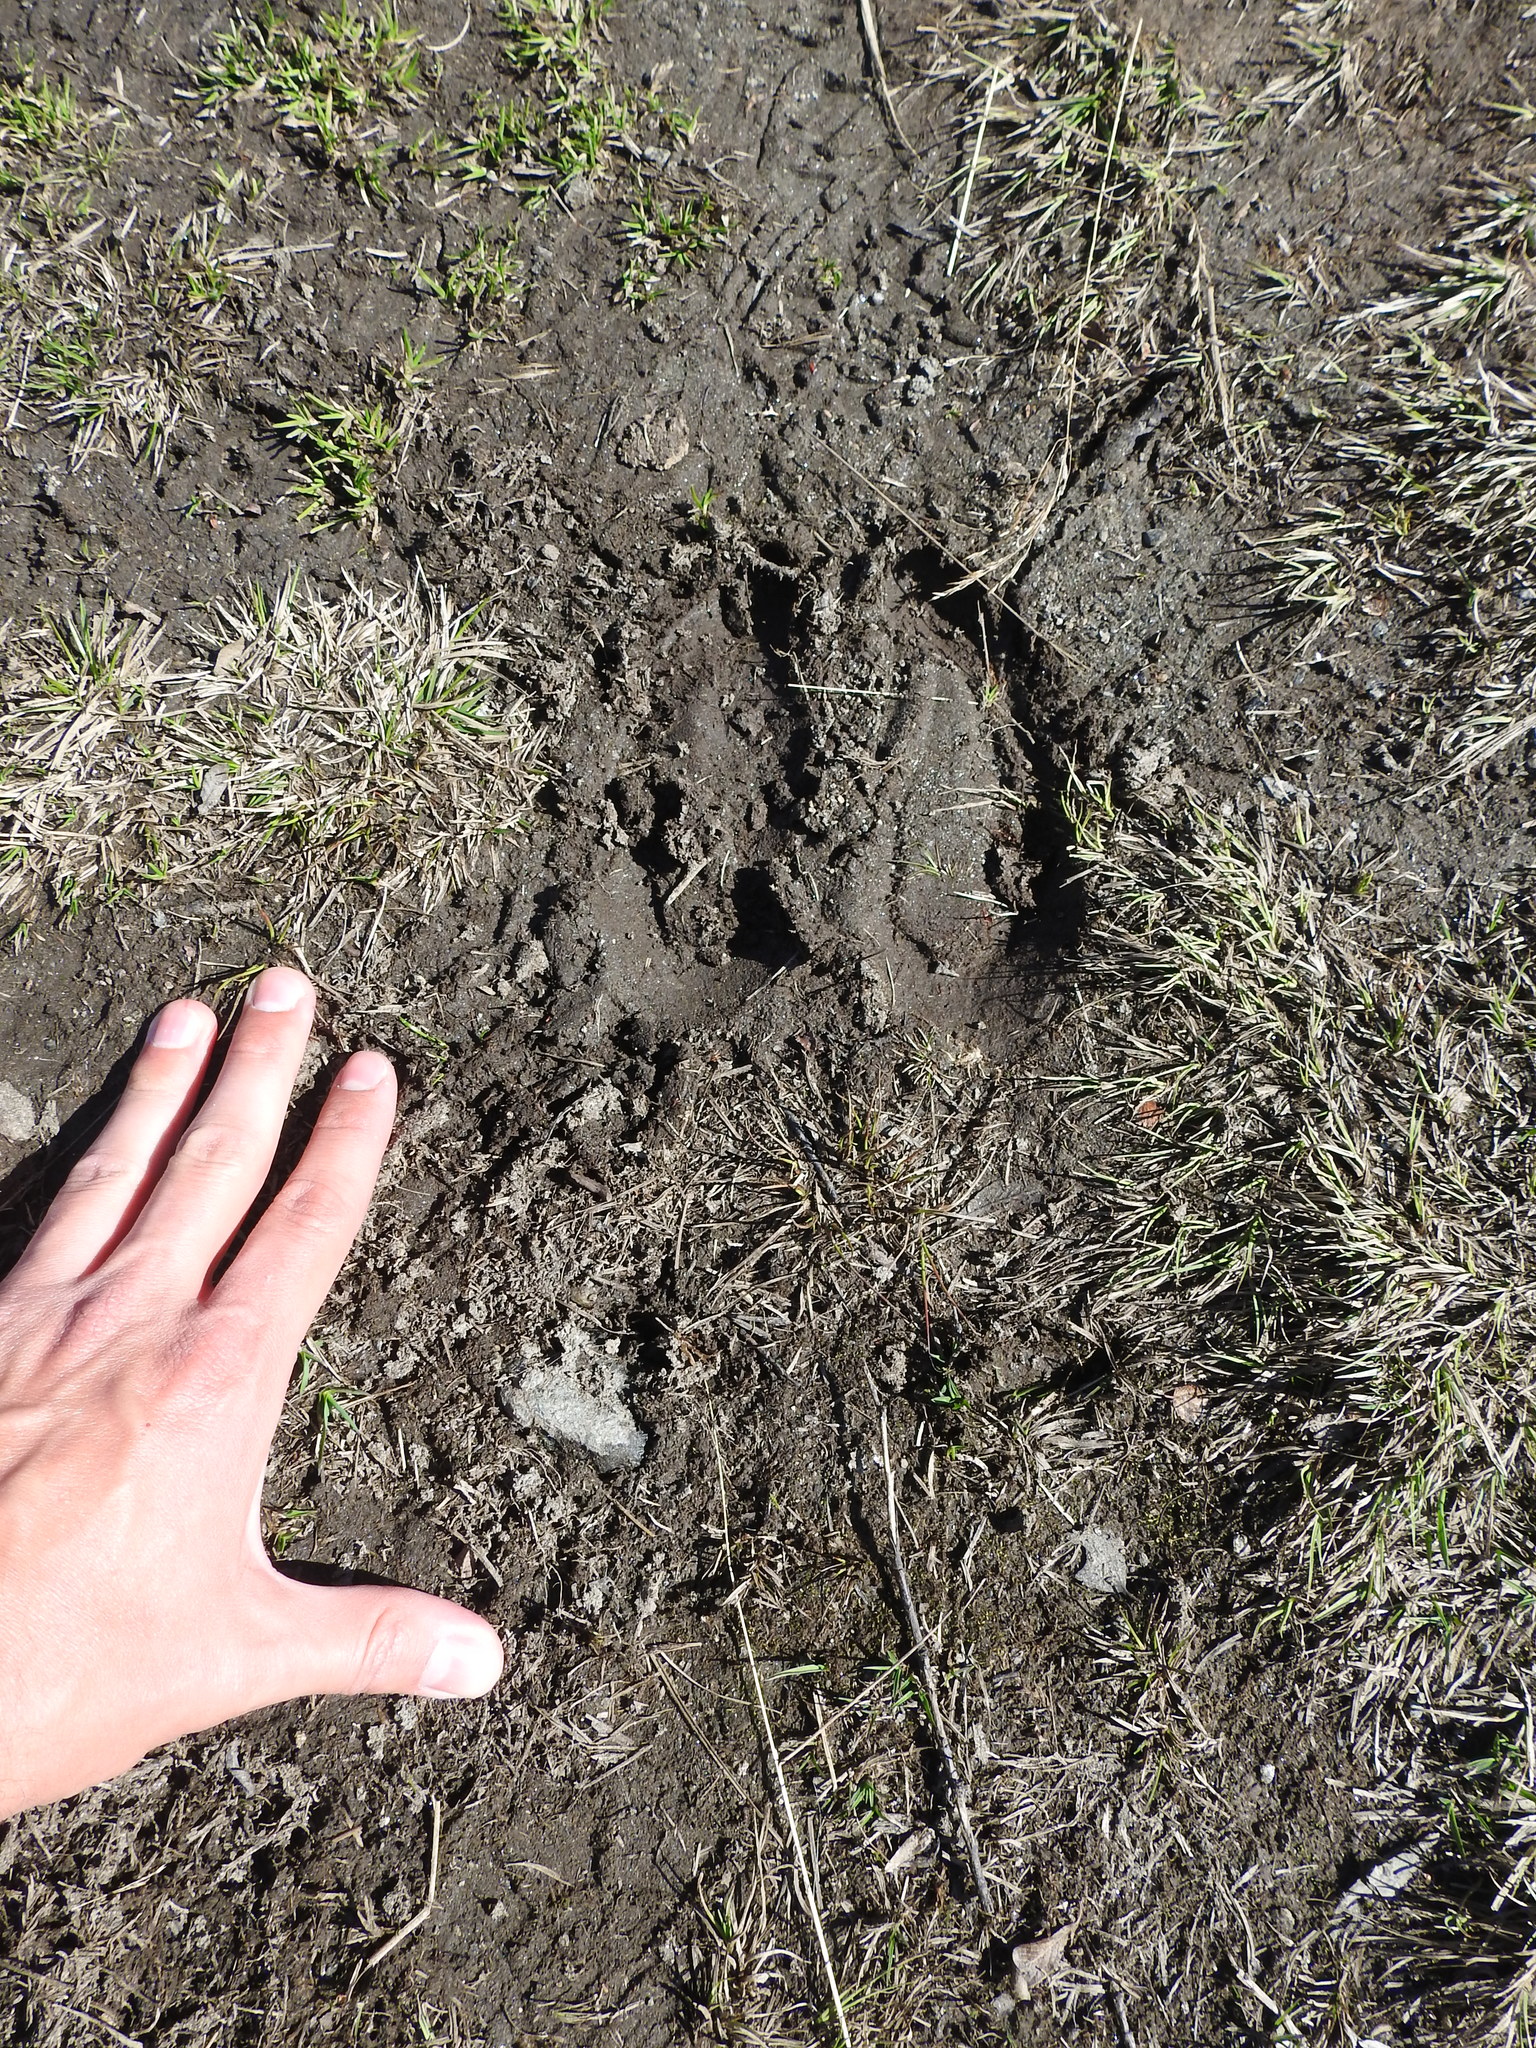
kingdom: Animalia
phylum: Chordata
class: Mammalia
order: Artiodactyla
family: Cervidae
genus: Alces
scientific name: Alces alces
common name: Moose
